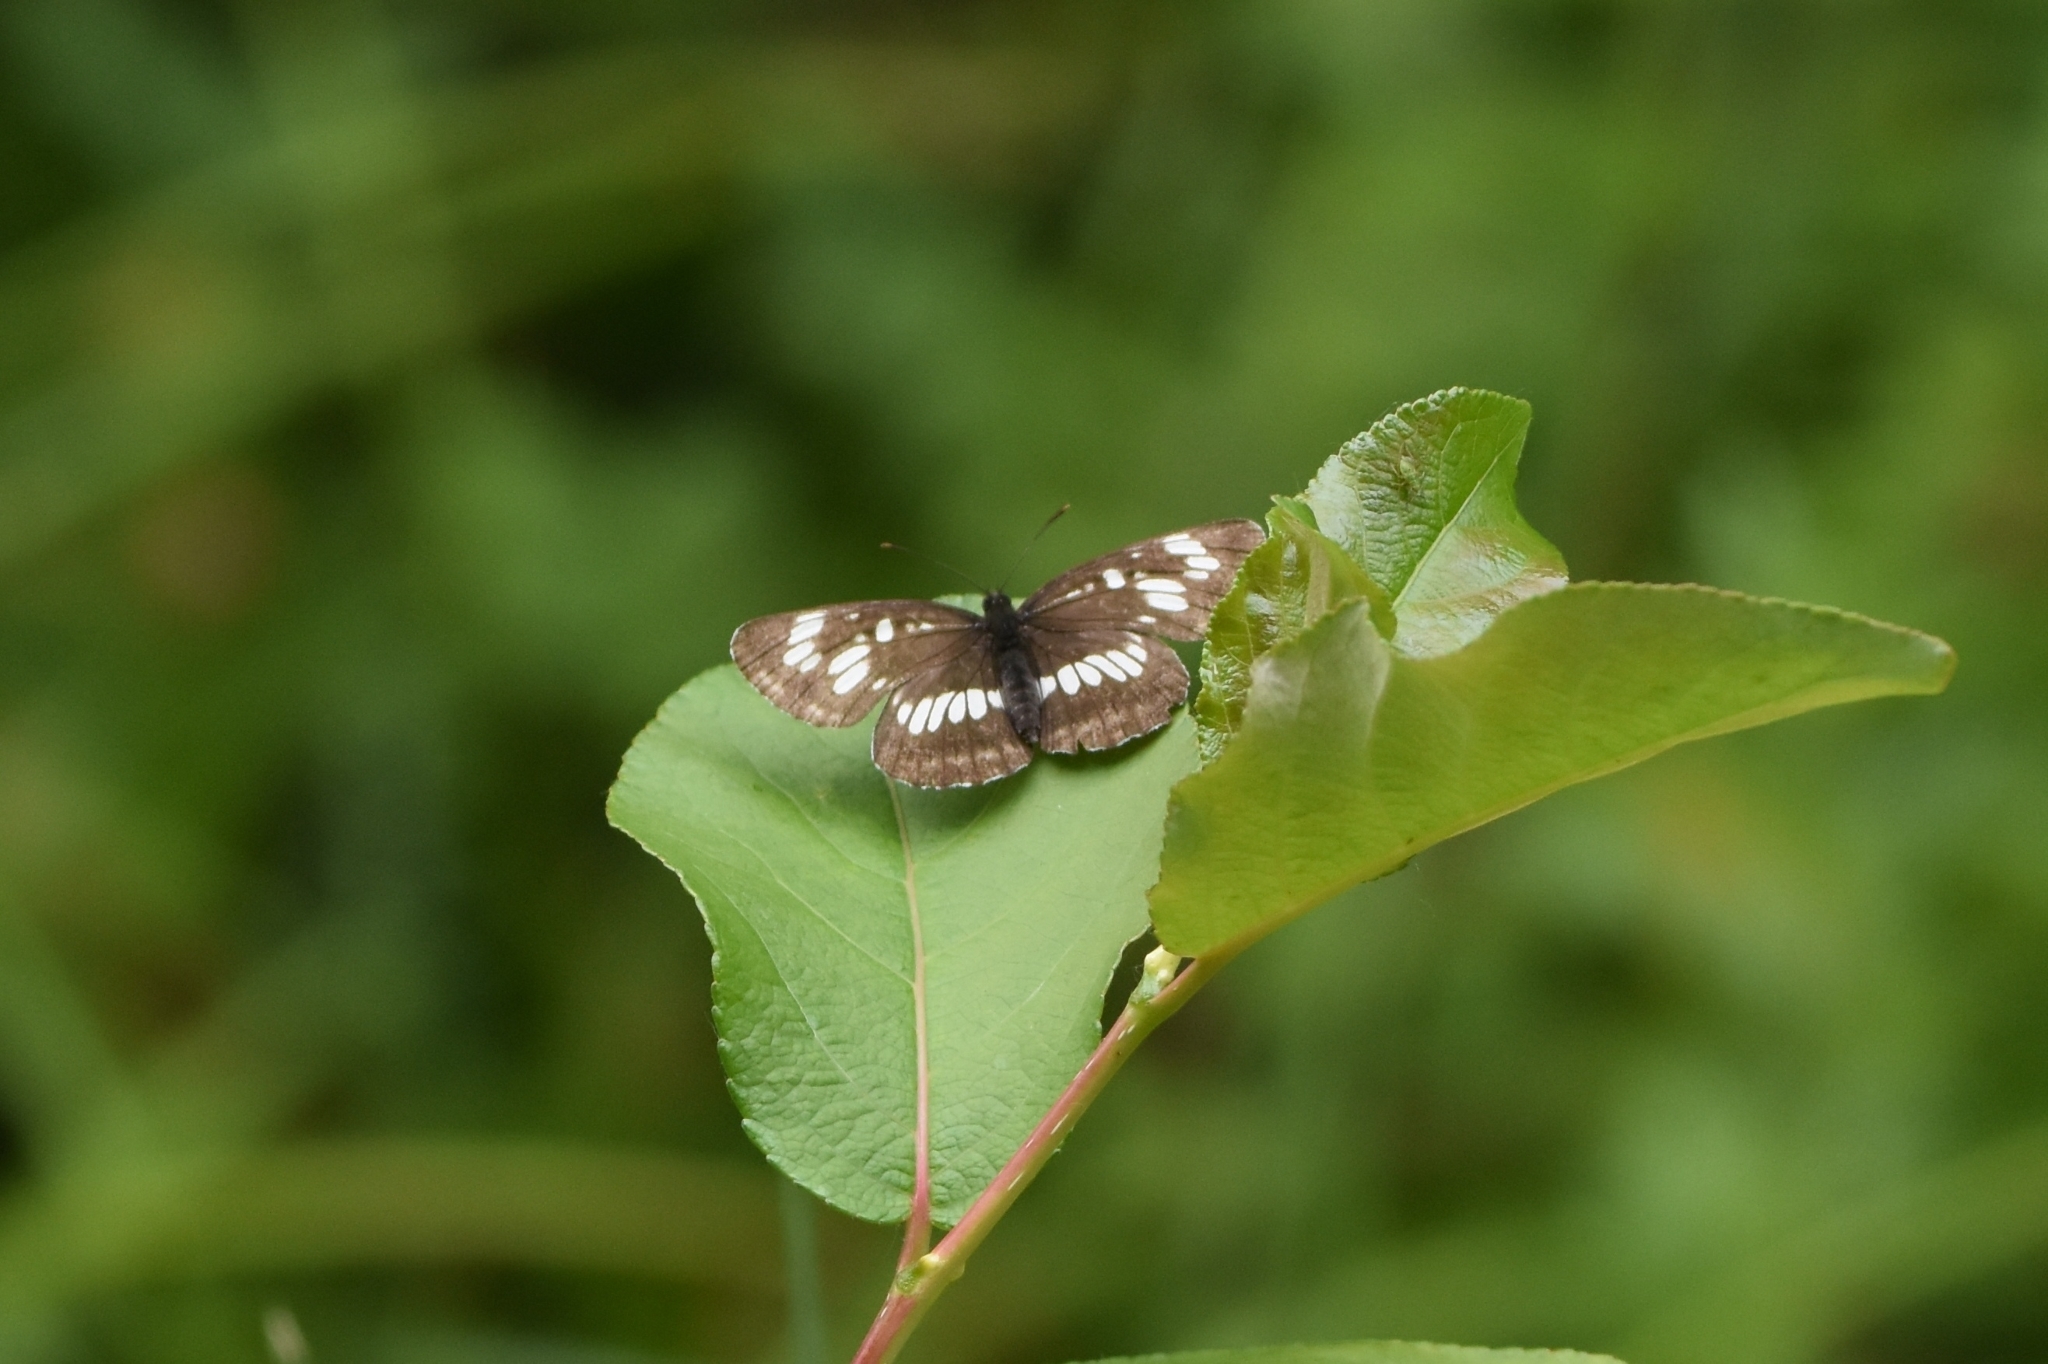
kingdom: Animalia
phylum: Arthropoda
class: Insecta
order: Lepidoptera
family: Nymphalidae
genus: Neptis
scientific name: Neptis rivularis
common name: Hungarian glider
